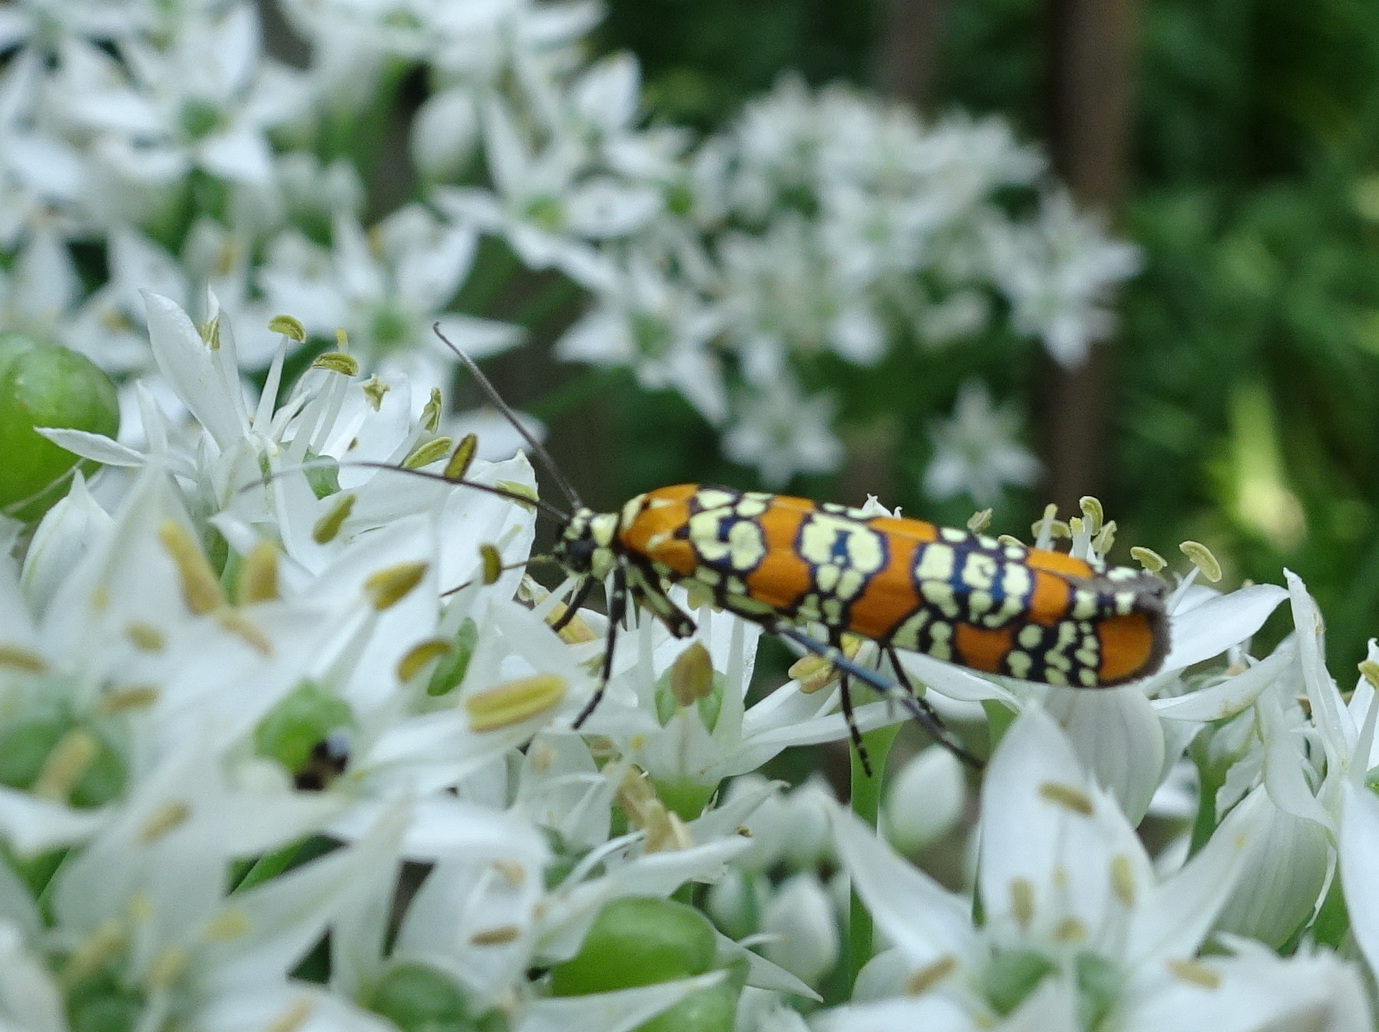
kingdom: Animalia
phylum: Arthropoda
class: Insecta
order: Lepidoptera
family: Attevidae
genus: Atteva
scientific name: Atteva punctella
